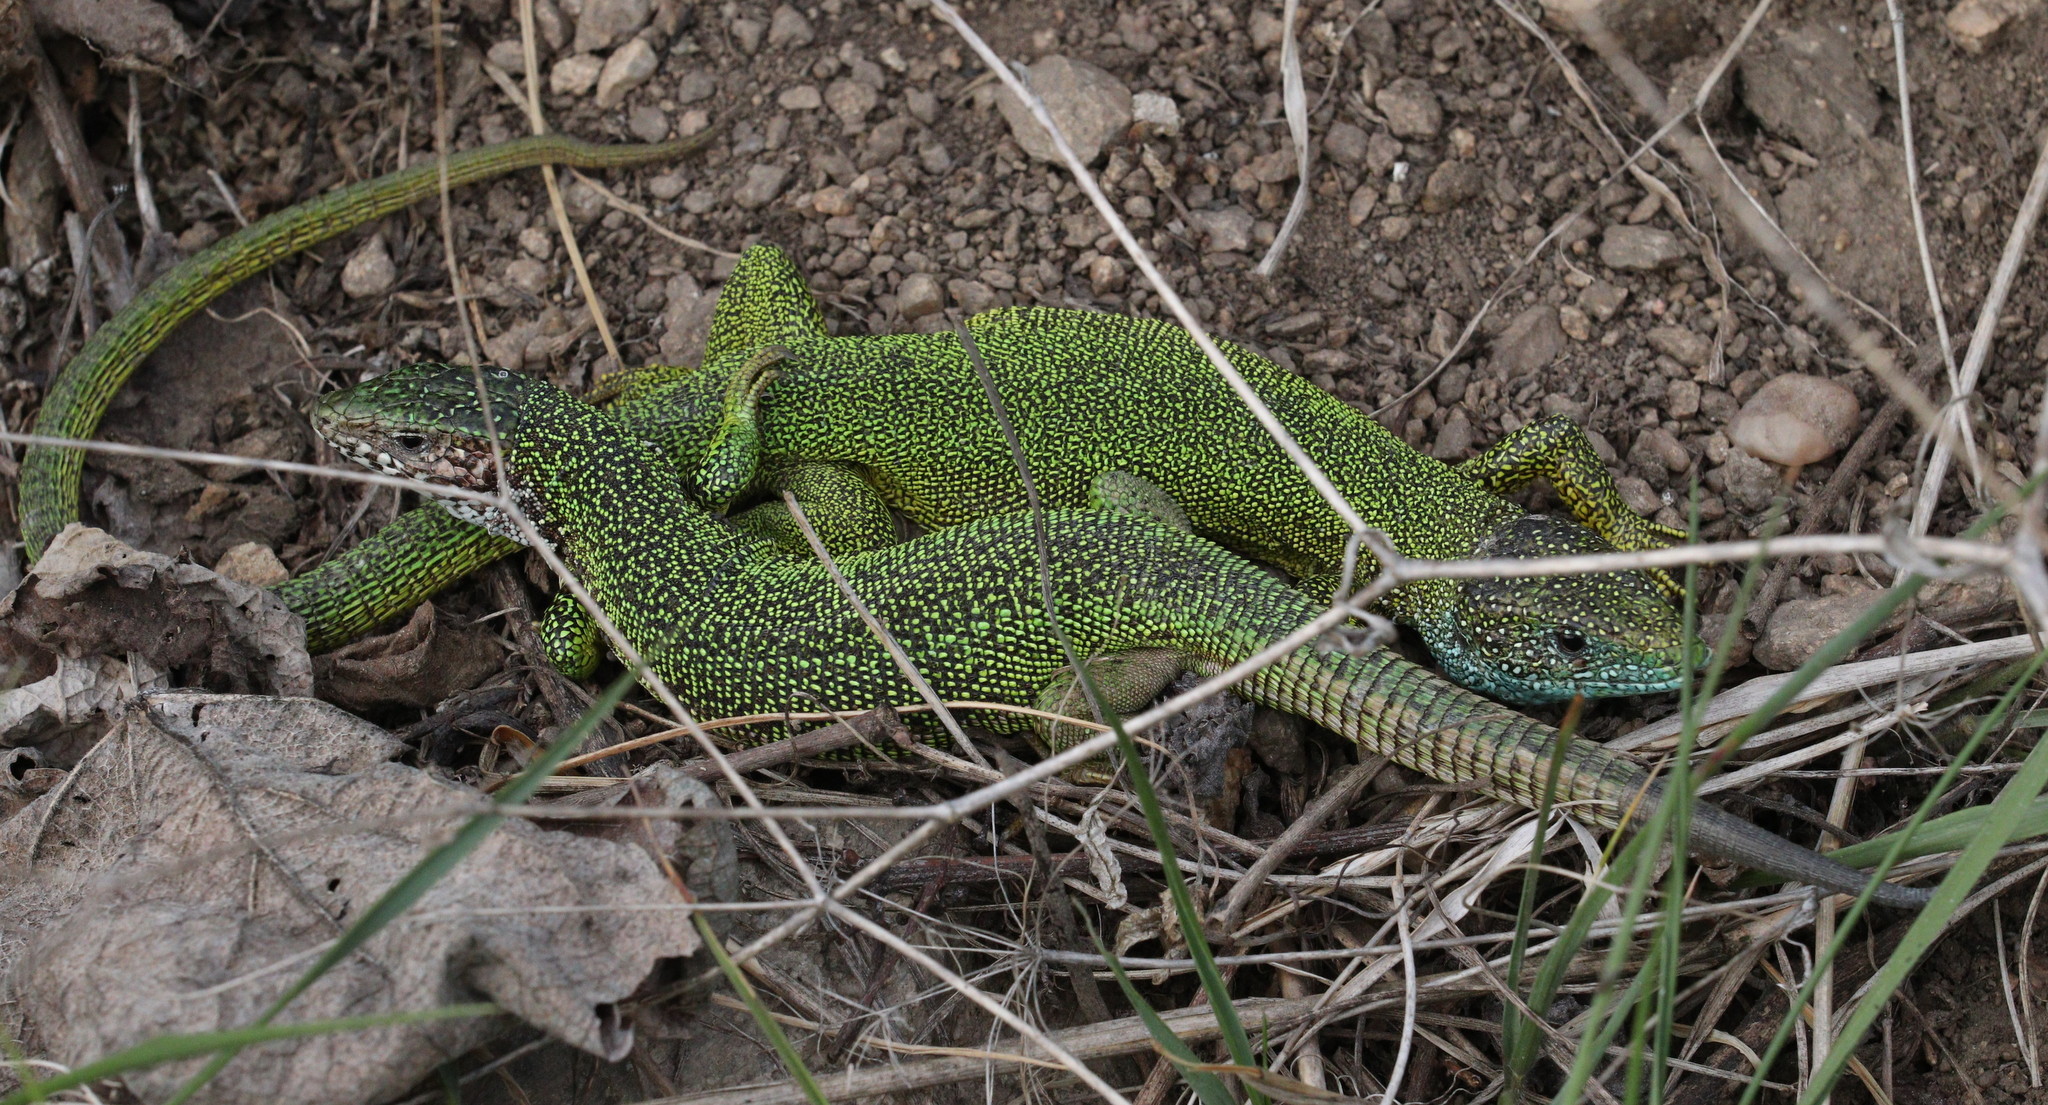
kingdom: Animalia
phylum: Chordata
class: Squamata
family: Lacertidae
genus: Lacerta
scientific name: Lacerta viridis
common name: European green lizard
